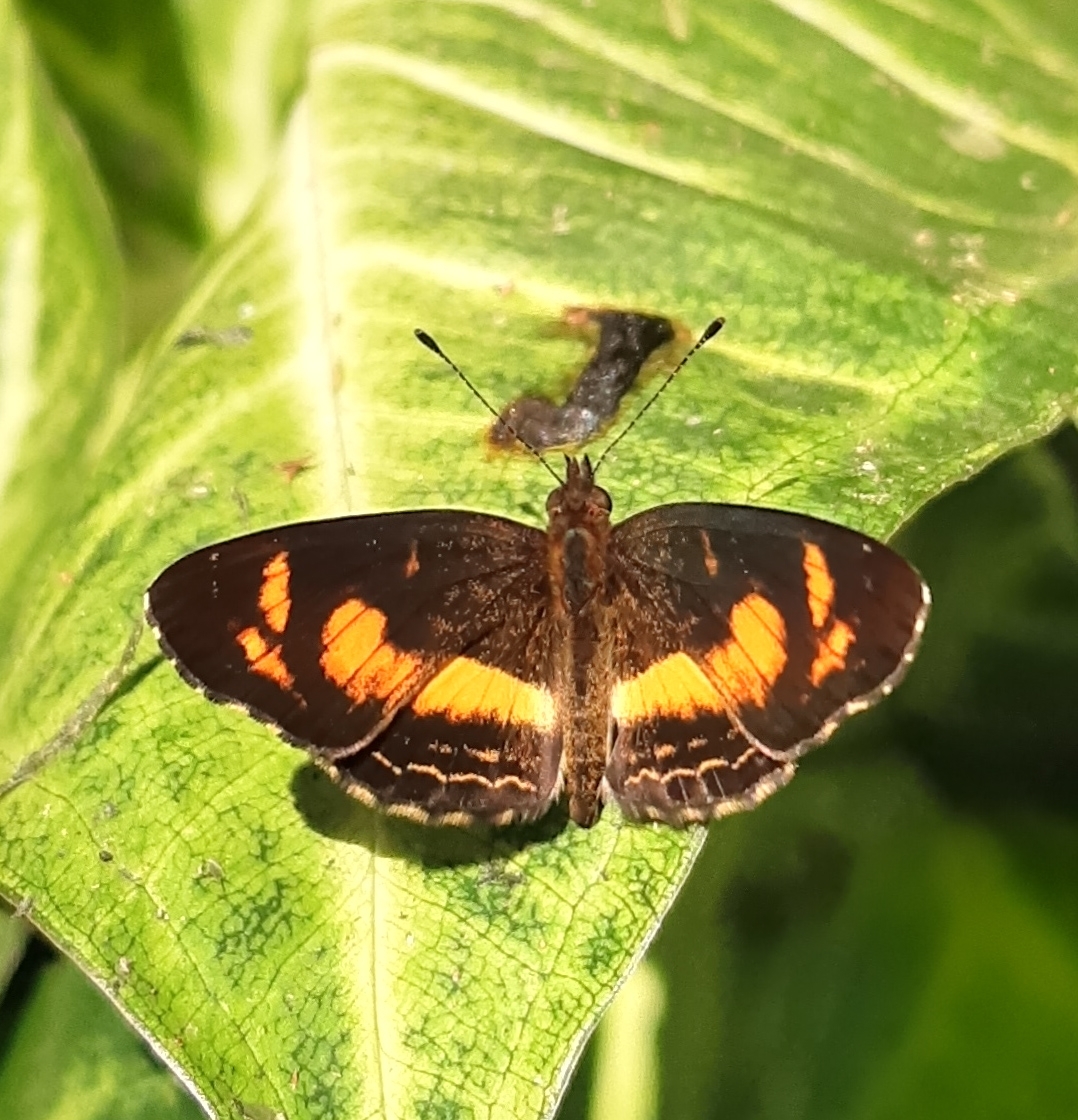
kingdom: Animalia
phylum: Arthropoda
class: Insecta
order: Lepidoptera
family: Nymphalidae
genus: Telenassa
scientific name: Telenassa teletusa
